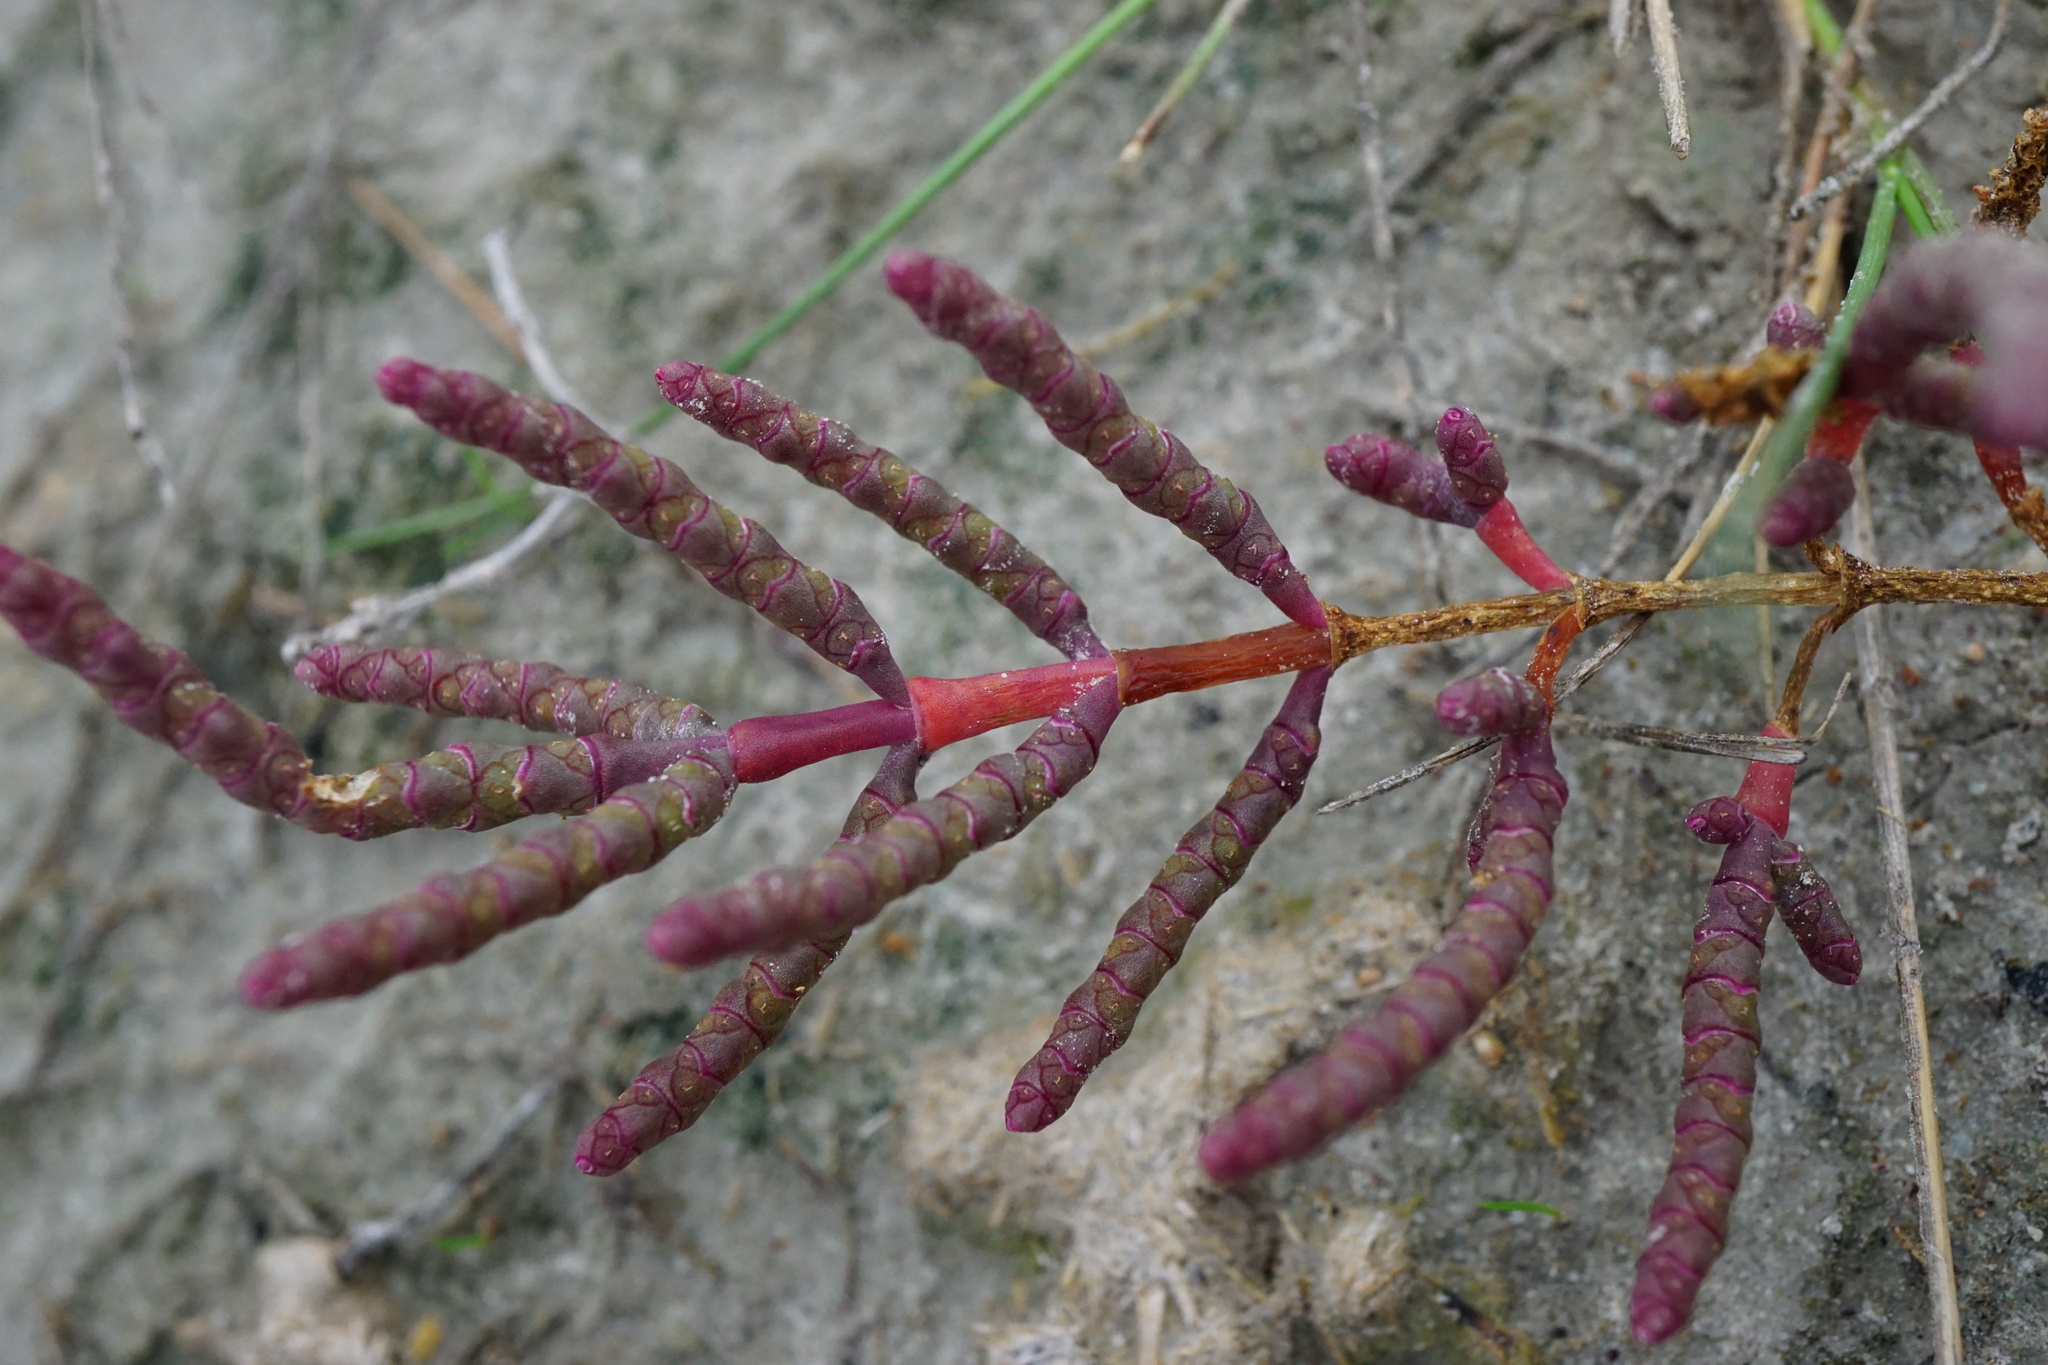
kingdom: Plantae
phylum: Tracheophyta
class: Magnoliopsida
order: Caryophyllales
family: Amaranthaceae
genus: Salicornia
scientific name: Salicornia perennans
